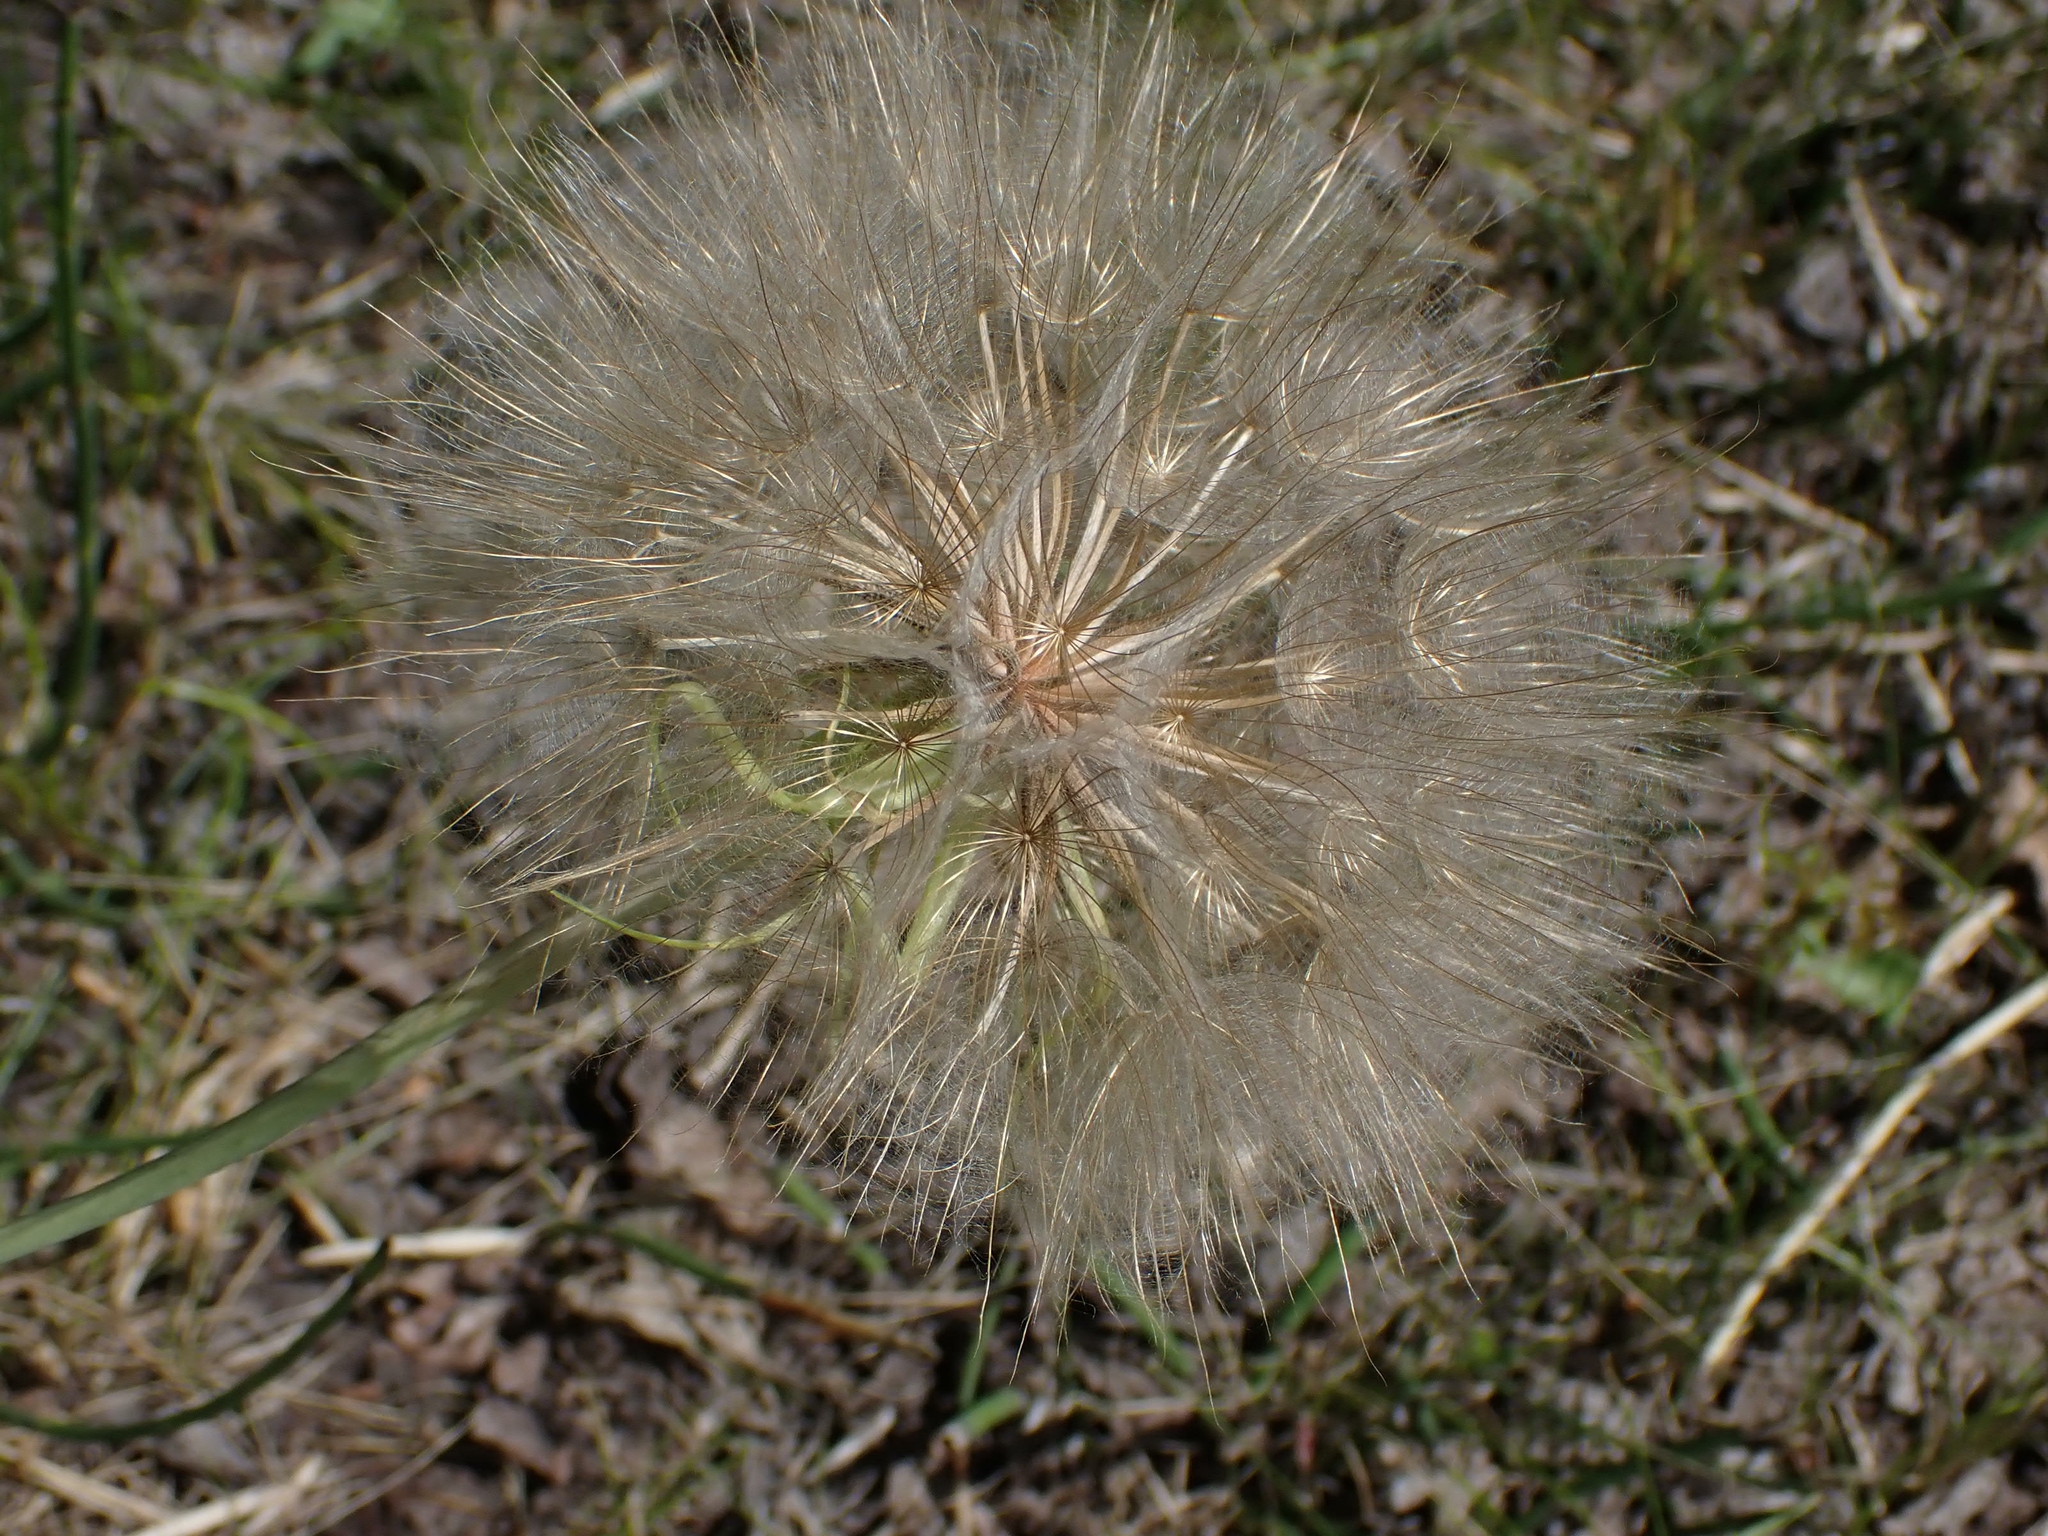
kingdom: Plantae
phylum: Tracheophyta
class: Magnoliopsida
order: Asterales
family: Asteraceae
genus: Tragopogon
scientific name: Tragopogon dubius
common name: Yellow salsify
